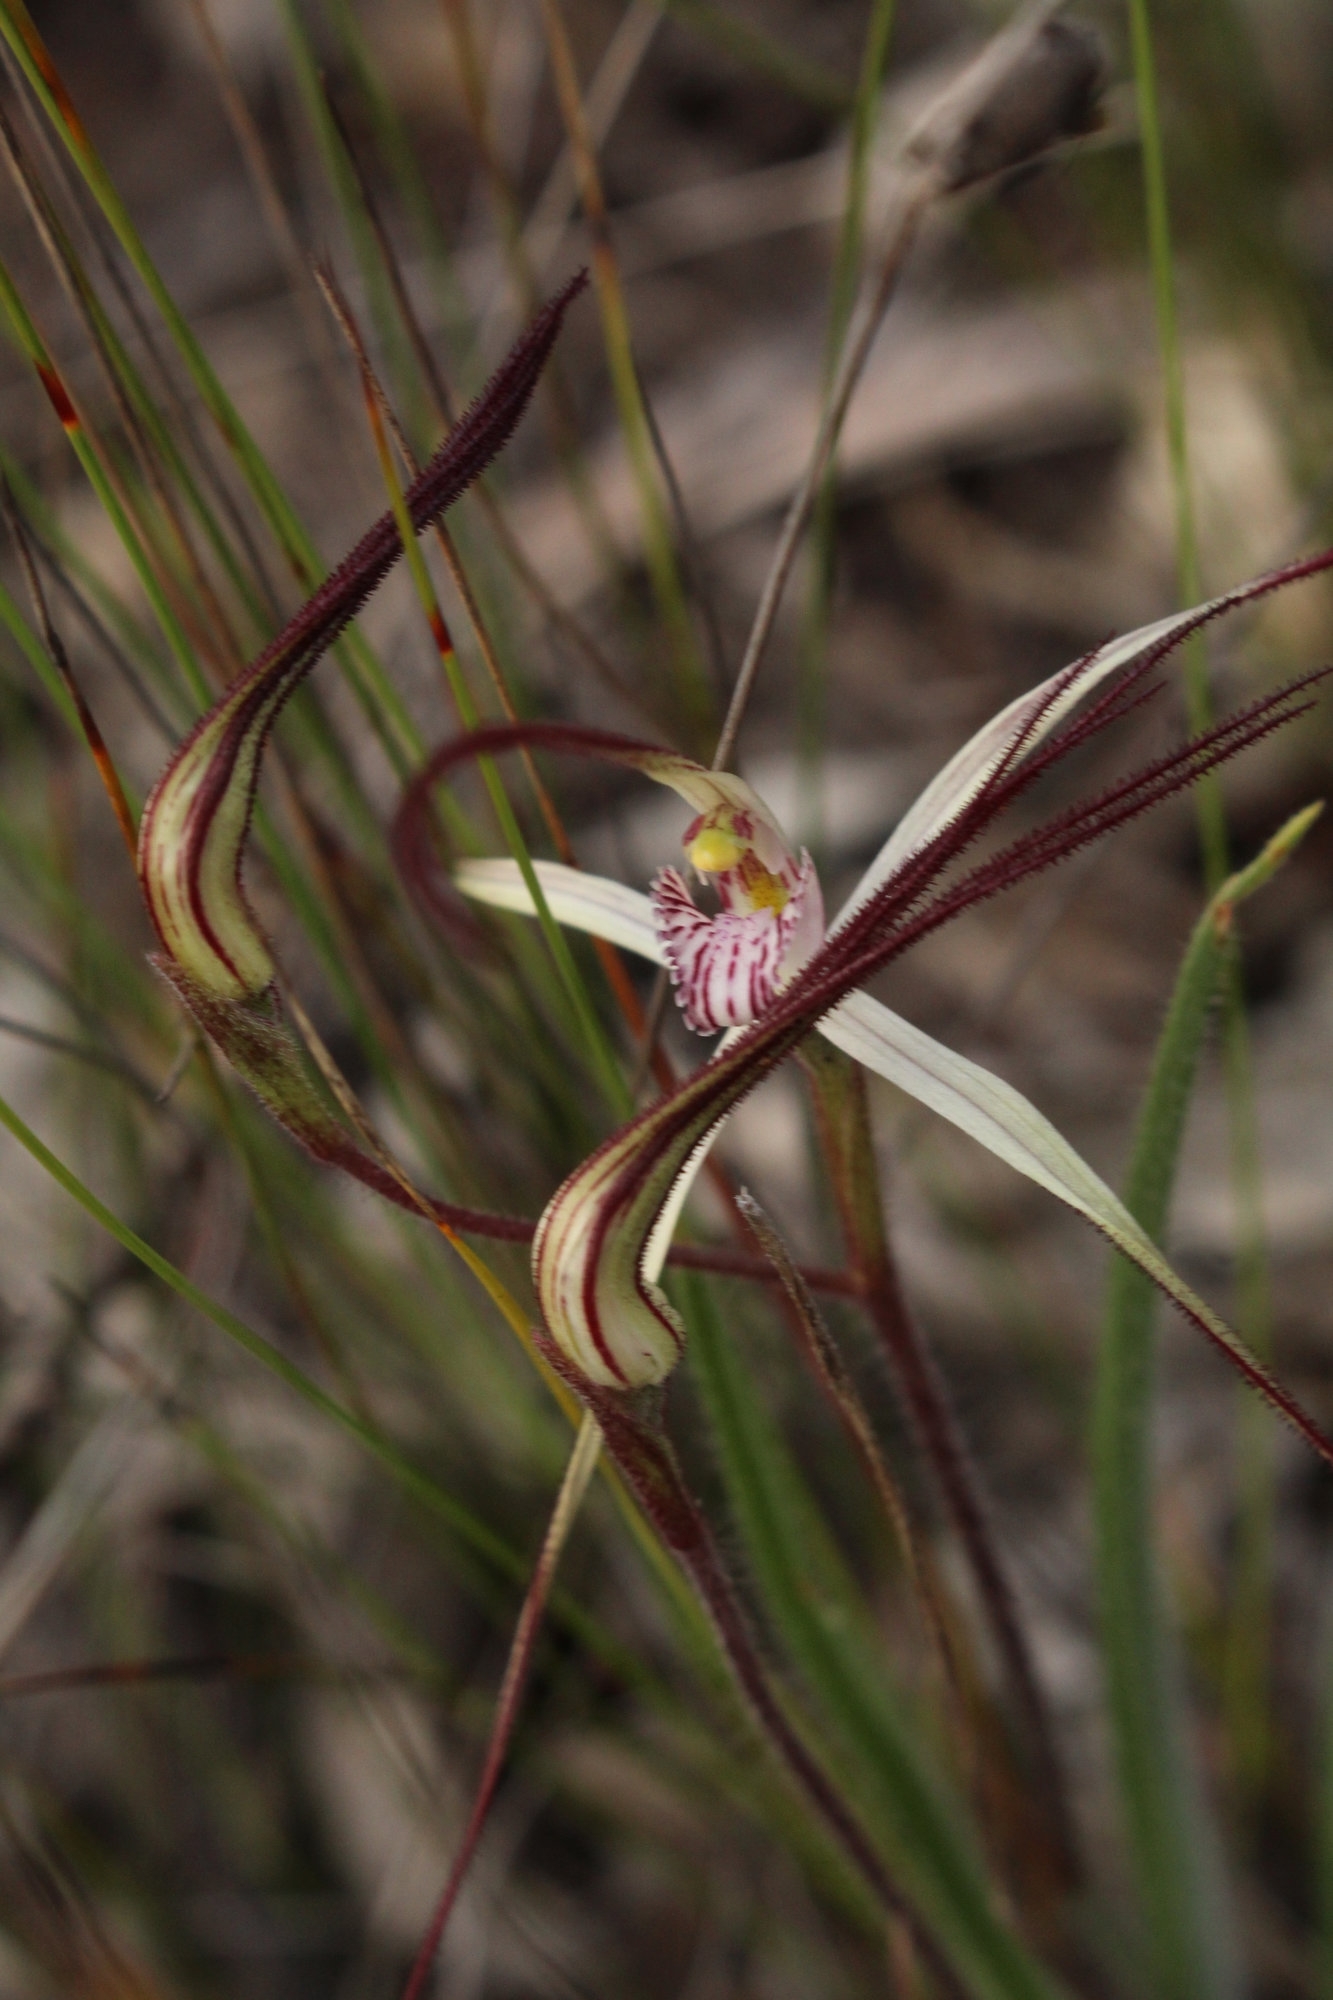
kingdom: Plantae
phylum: Tracheophyta
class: Liliopsida
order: Asparagales
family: Orchidaceae
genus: Caladenia
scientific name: Caladenia hiemalis
